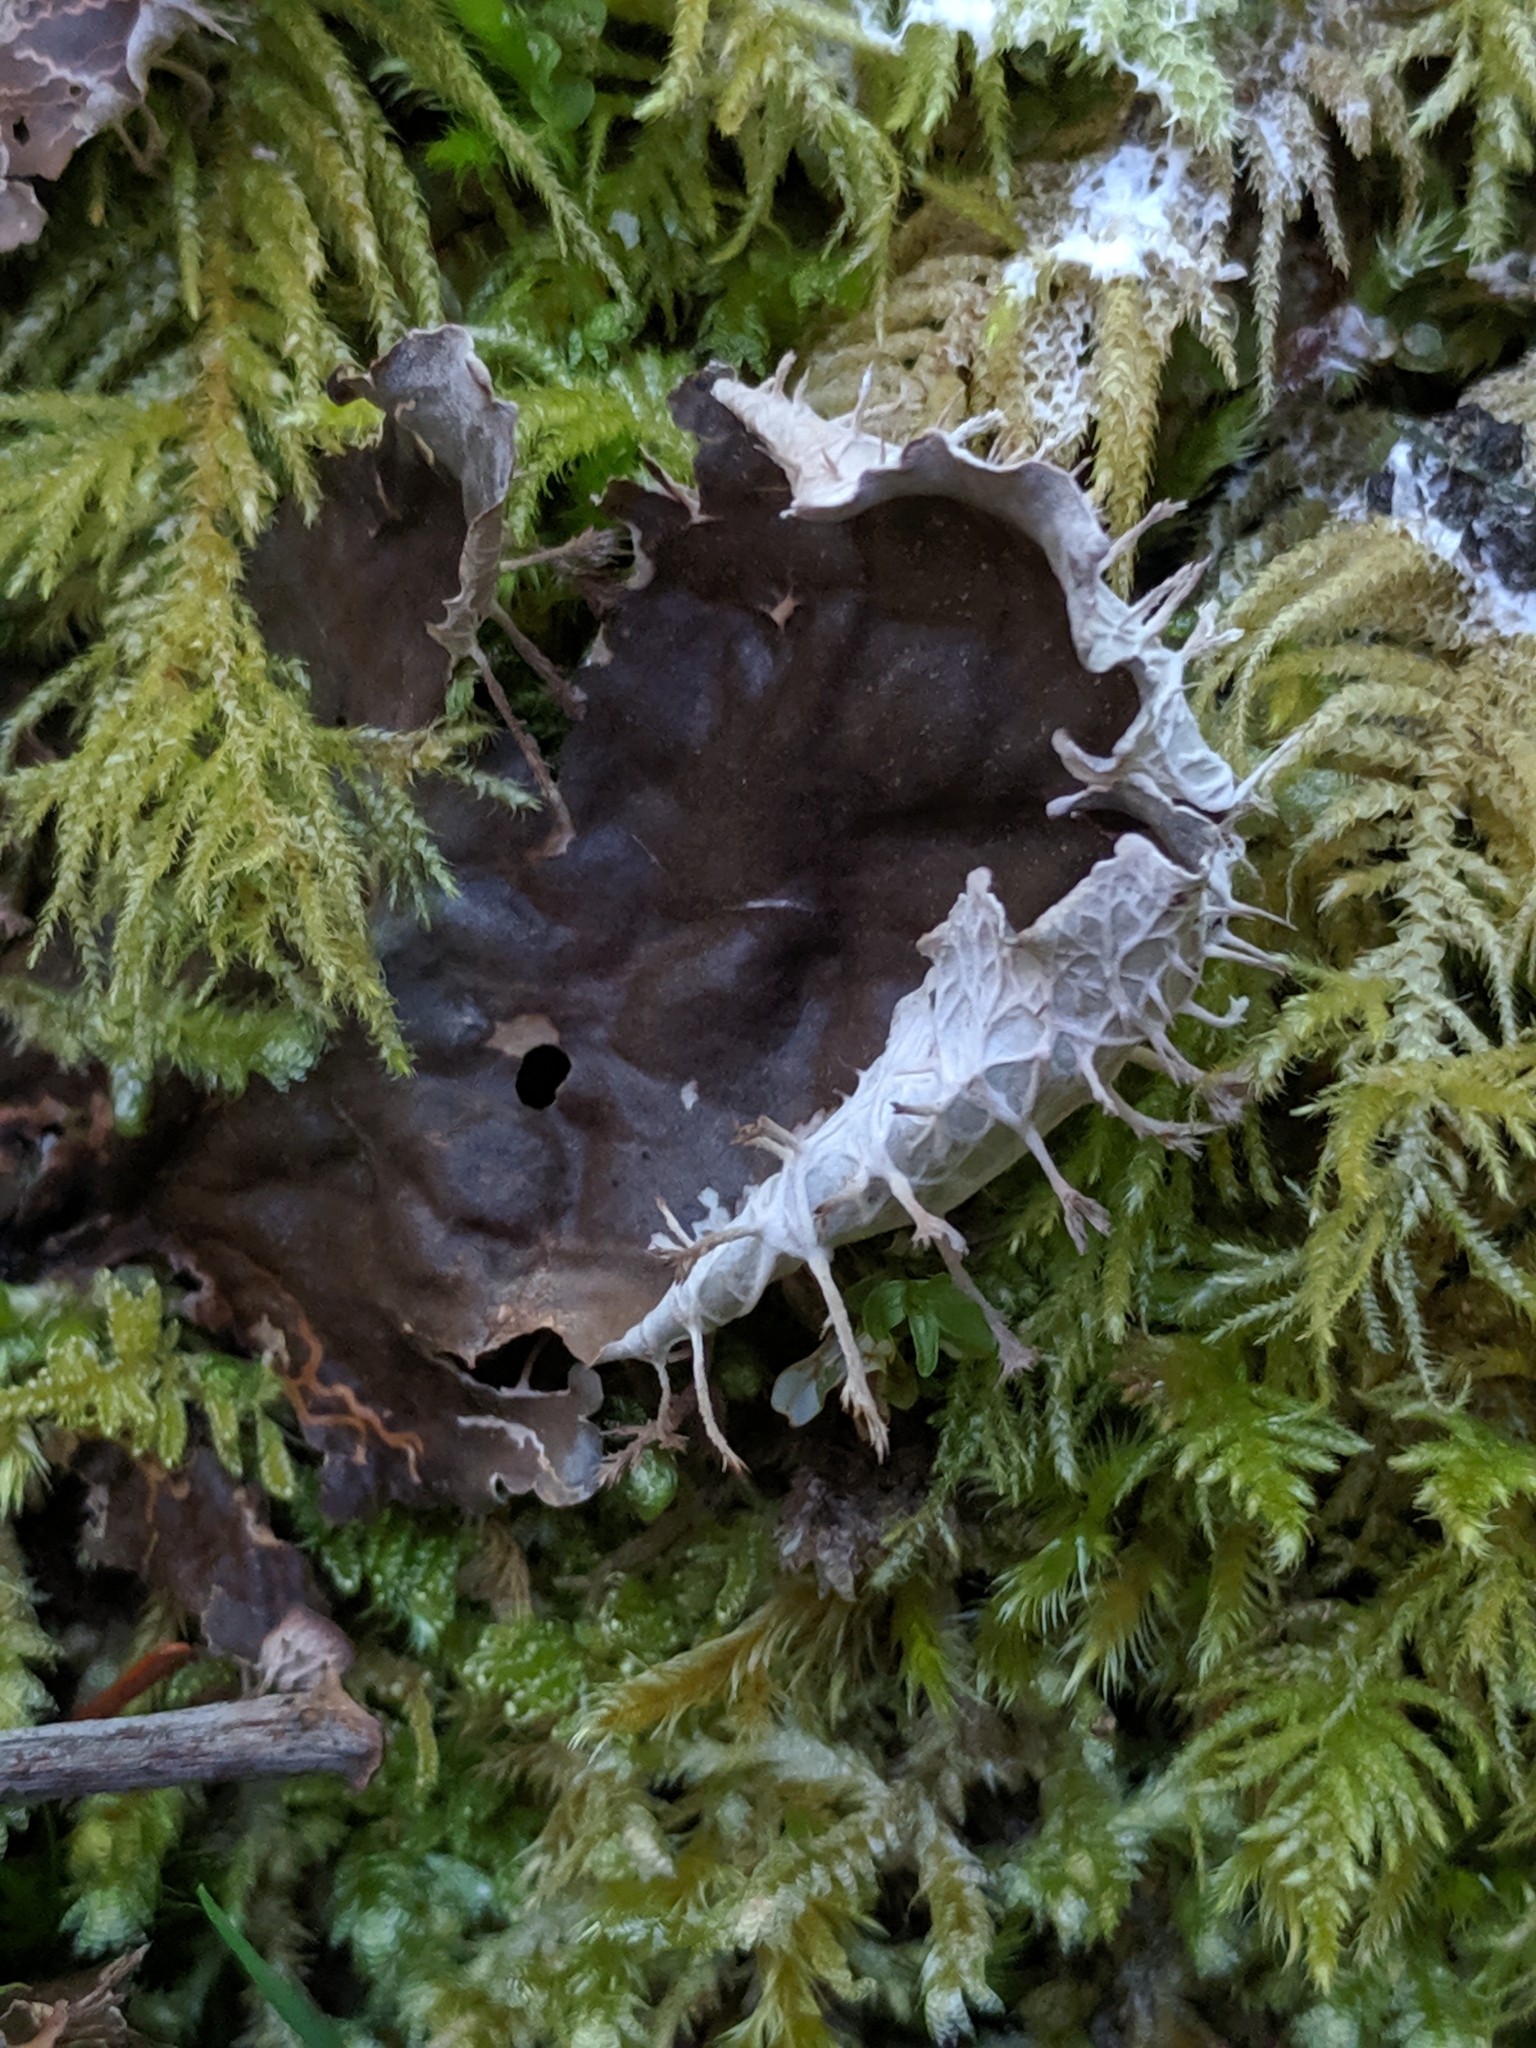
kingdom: Fungi
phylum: Ascomycota
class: Lecanoromycetes
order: Peltigerales
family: Peltigeraceae
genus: Peltigera
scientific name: Peltigera membranacea
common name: Membranous pelt lichen
